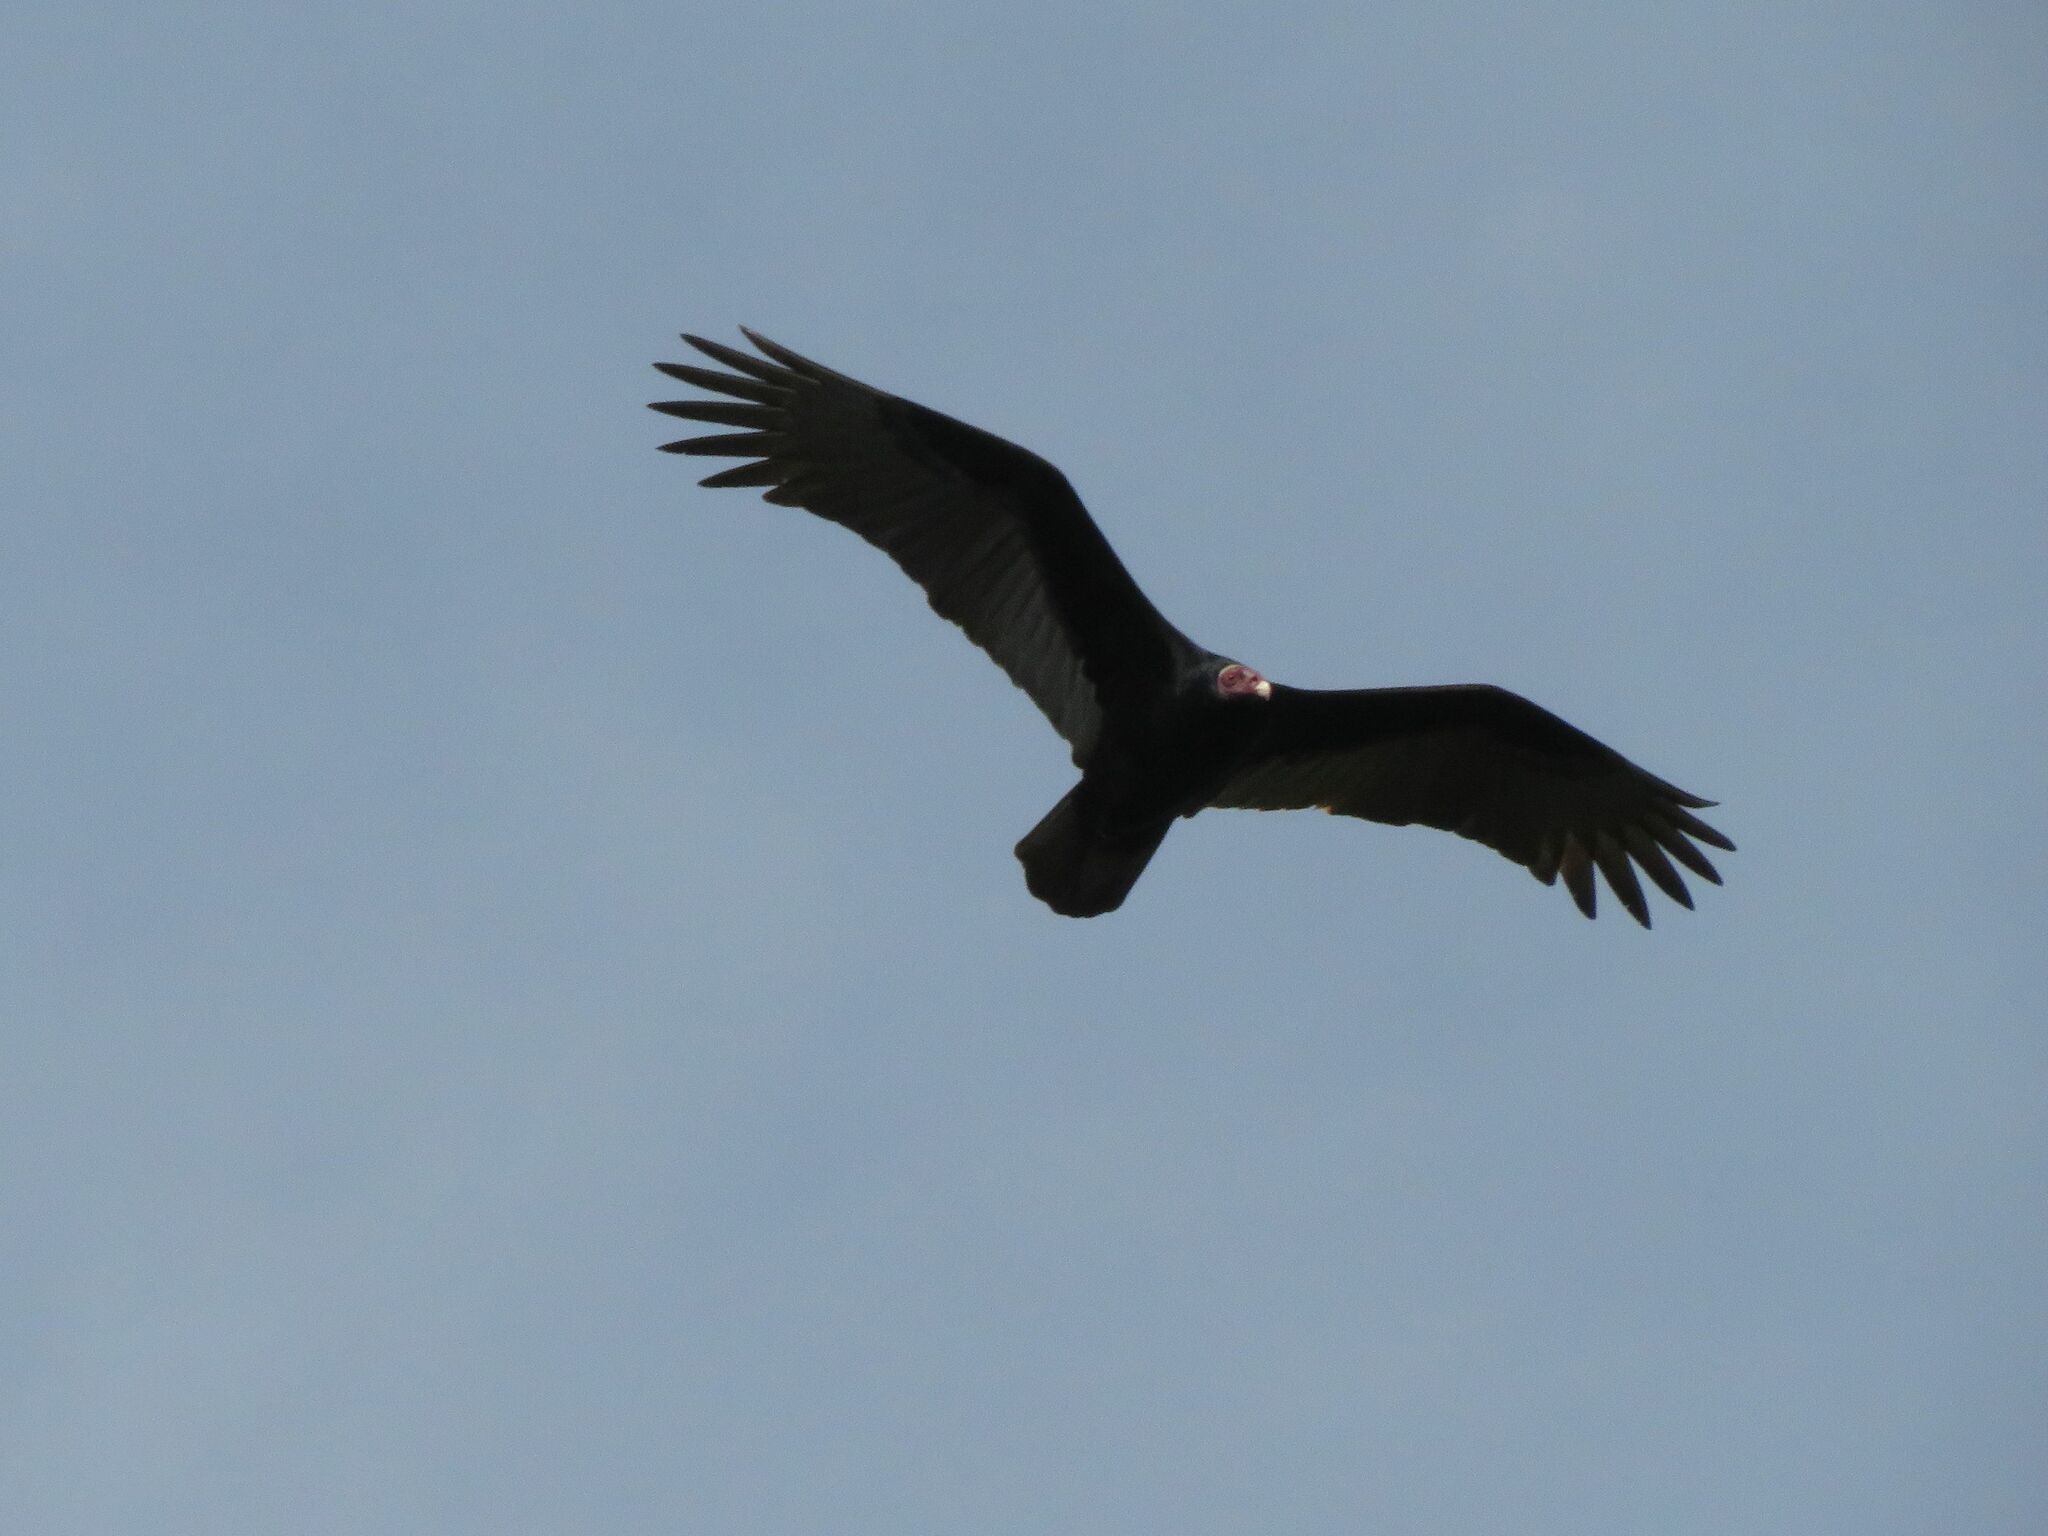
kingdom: Animalia
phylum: Chordata
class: Aves
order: Accipitriformes
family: Cathartidae
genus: Cathartes
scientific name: Cathartes aura
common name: Turkey vulture
